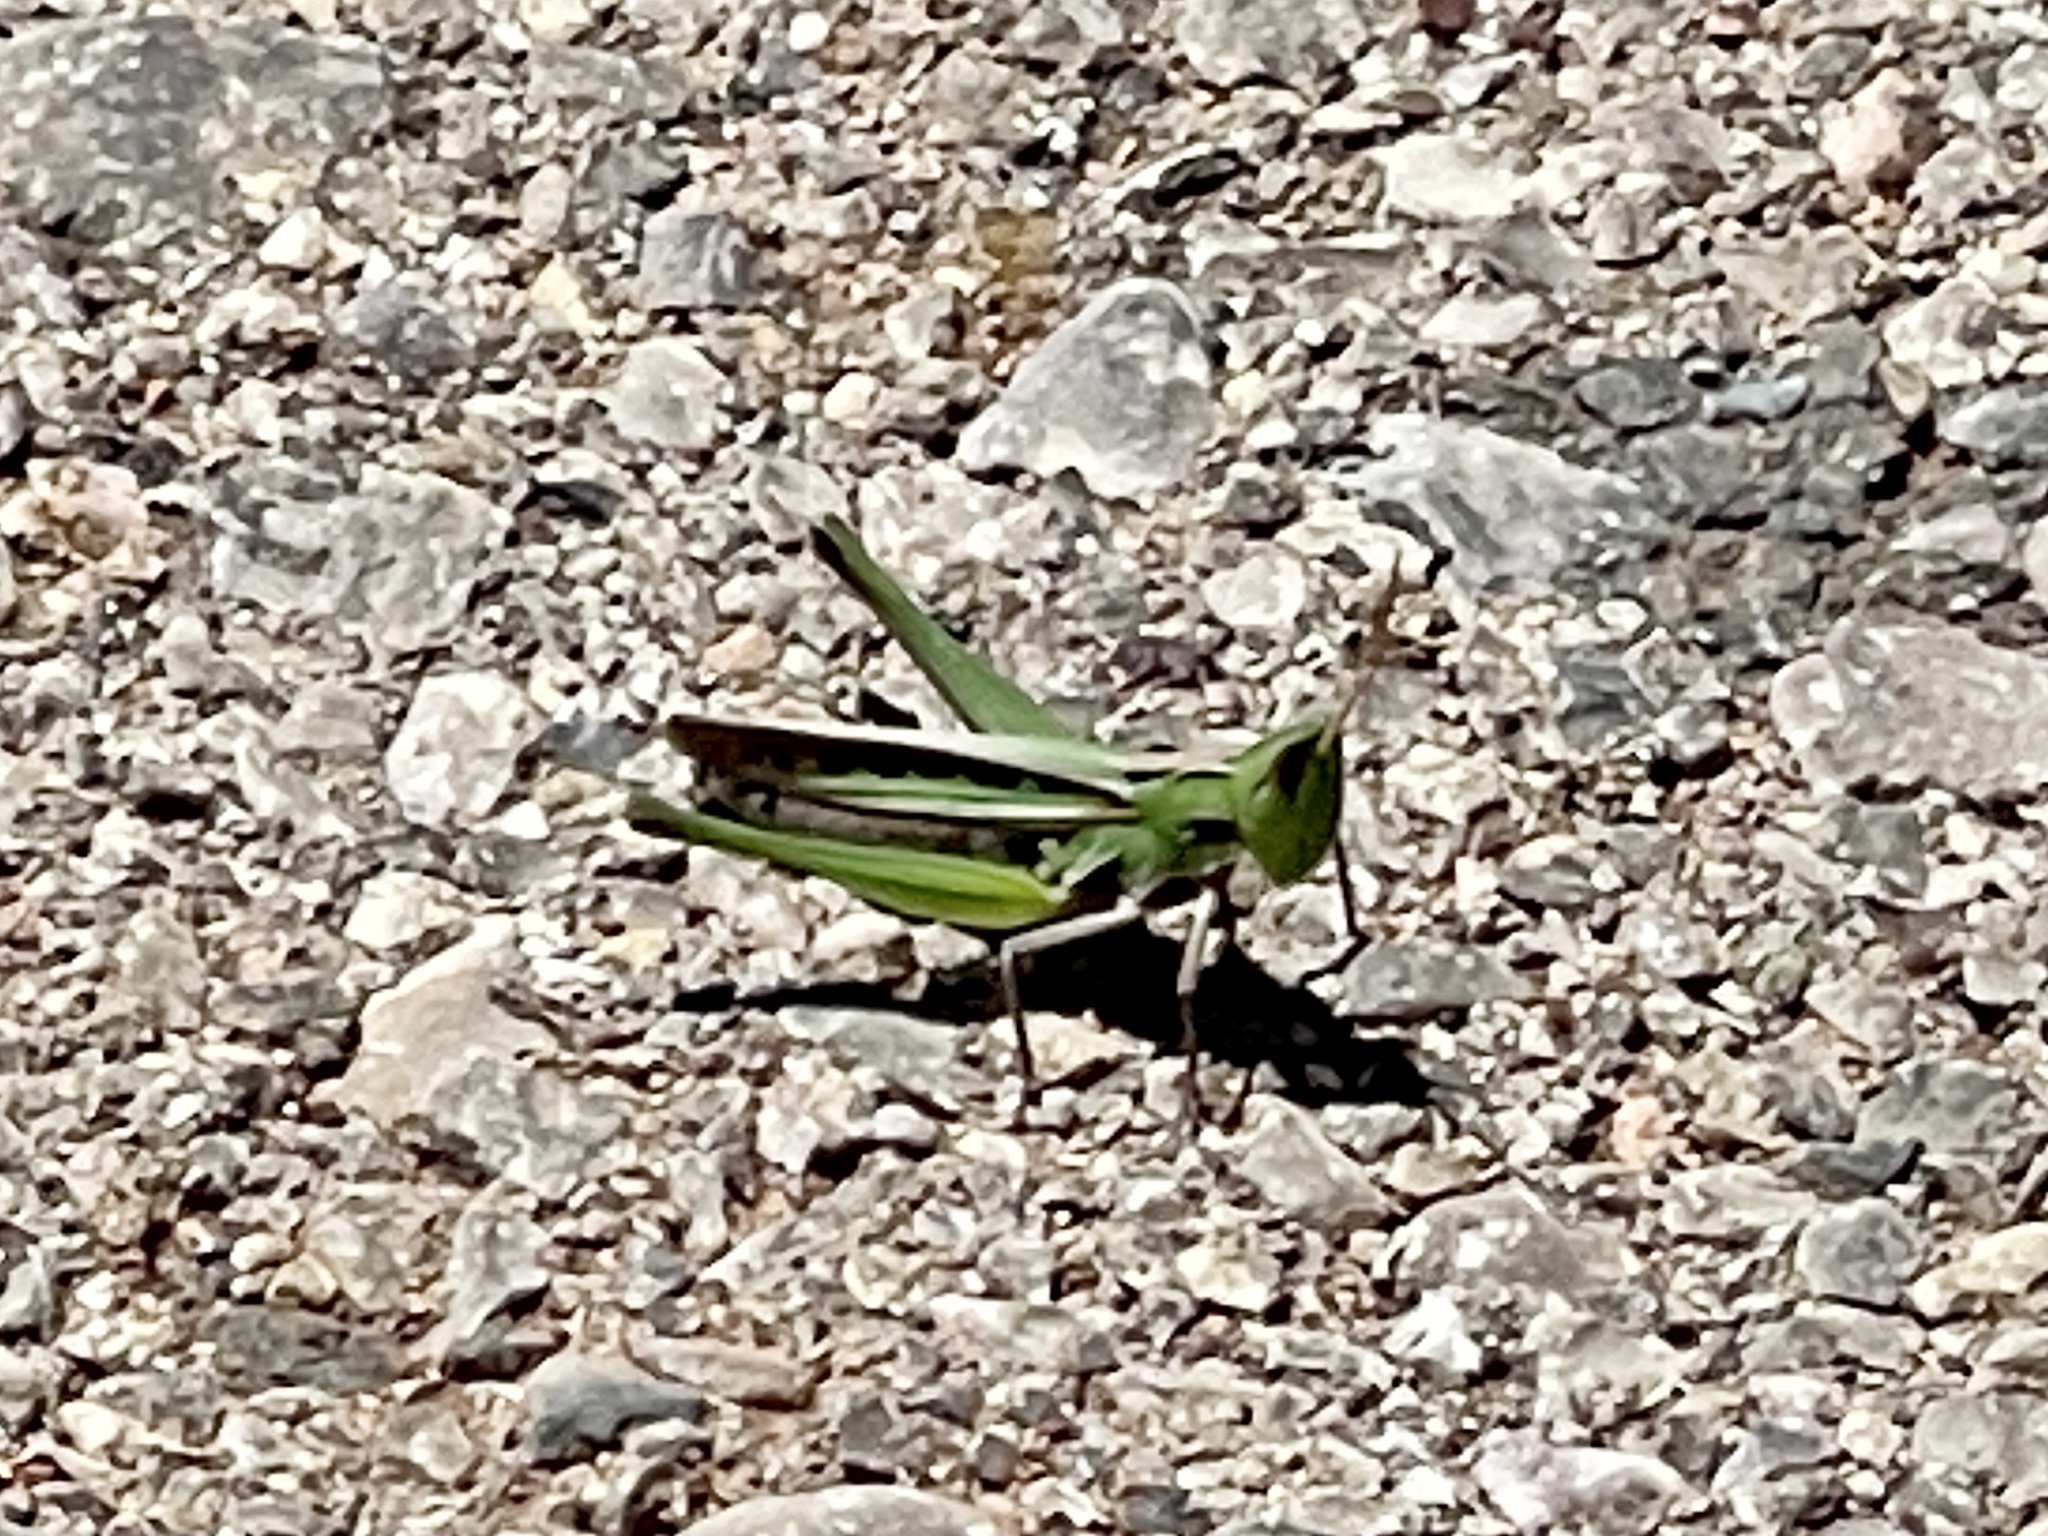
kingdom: Animalia
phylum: Arthropoda
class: Insecta
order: Orthoptera
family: Acrididae
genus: Syrbula
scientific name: Syrbula montezuma
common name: Montezuma's grasshopper
